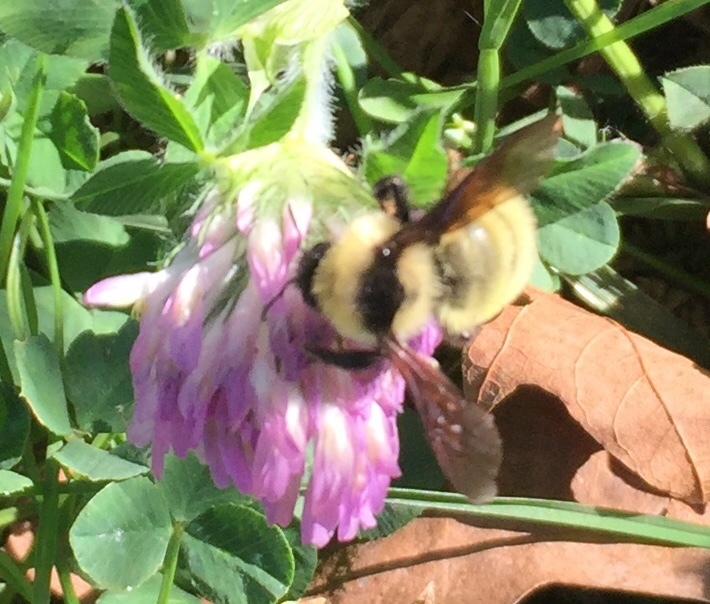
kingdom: Animalia
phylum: Arthropoda
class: Insecta
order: Hymenoptera
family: Apidae
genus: Bombus
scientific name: Bombus fervidus
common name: Yellow bumble bee
